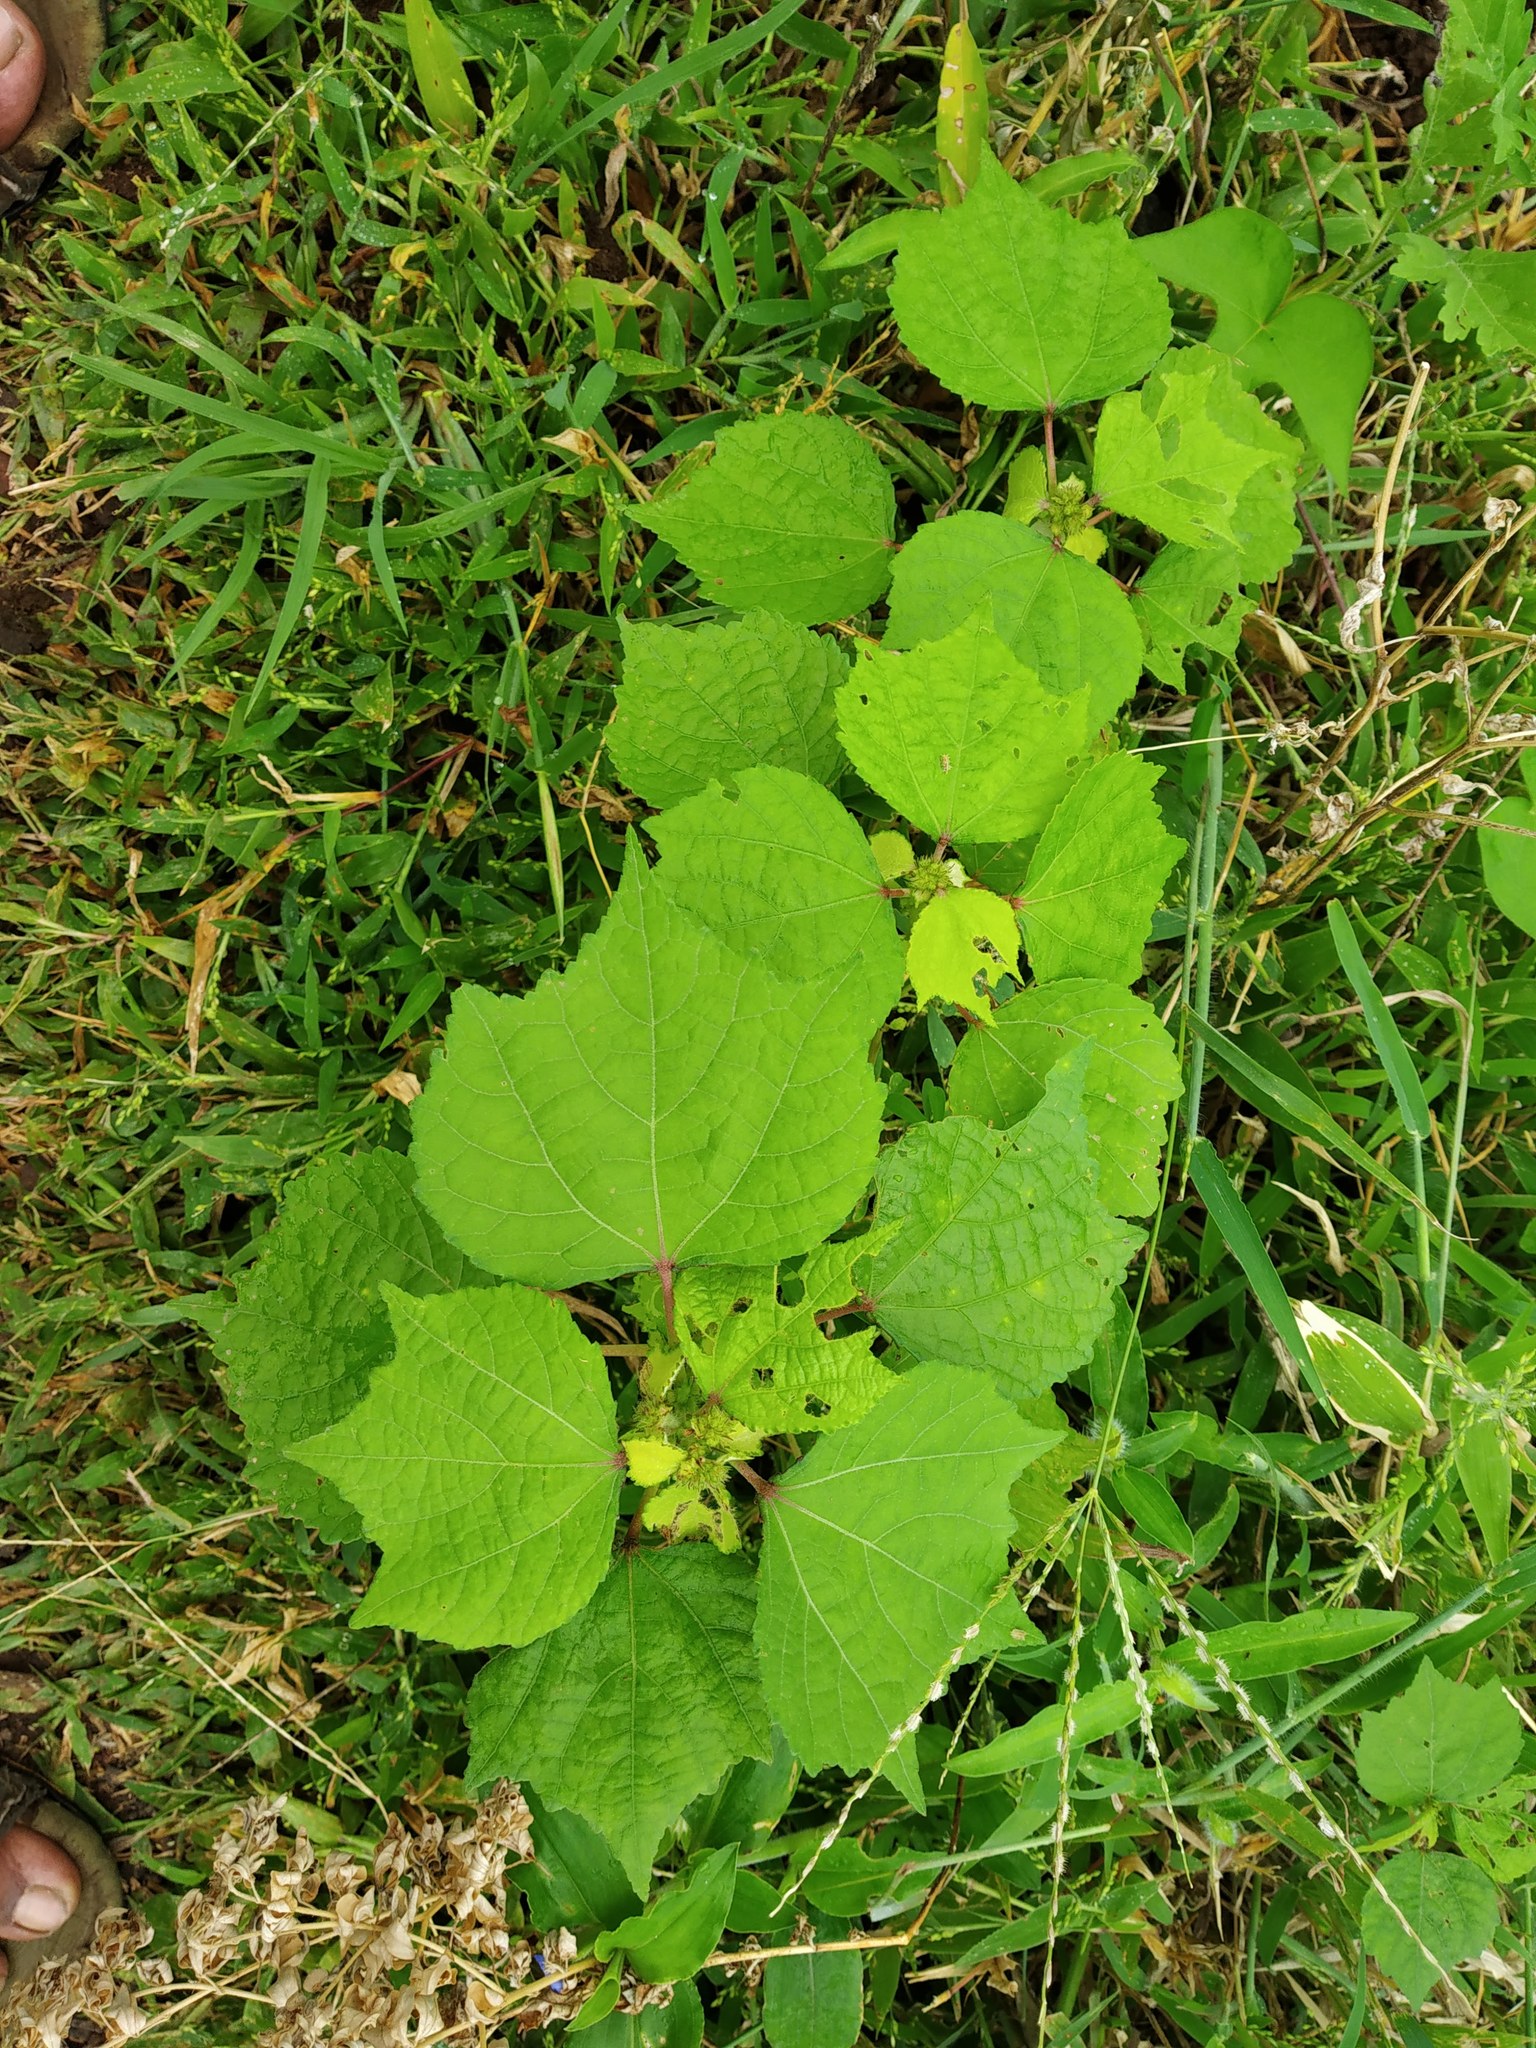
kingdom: Plantae
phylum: Tracheophyta
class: Magnoliopsida
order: Malvales
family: Malvaceae
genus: Triumfetta
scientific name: Triumfetta rhomboidea
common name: Diamond burbark
